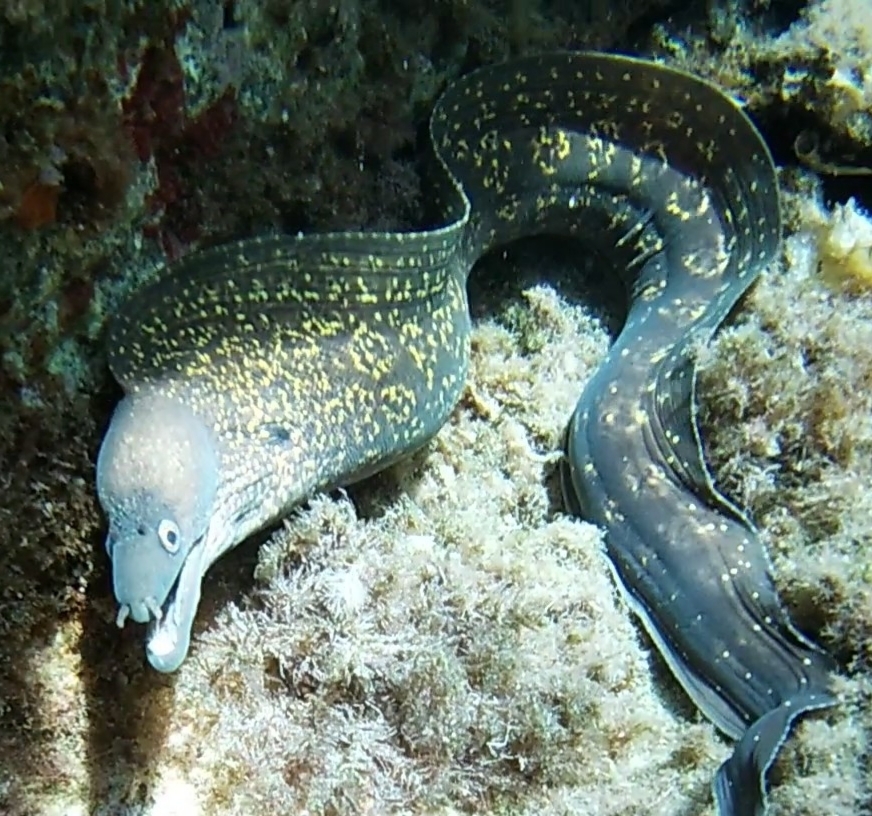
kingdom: Animalia
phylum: Chordata
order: Anguilliformes
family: Muraenidae
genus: Muraena
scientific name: Muraena helena
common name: Mediterranean moray
